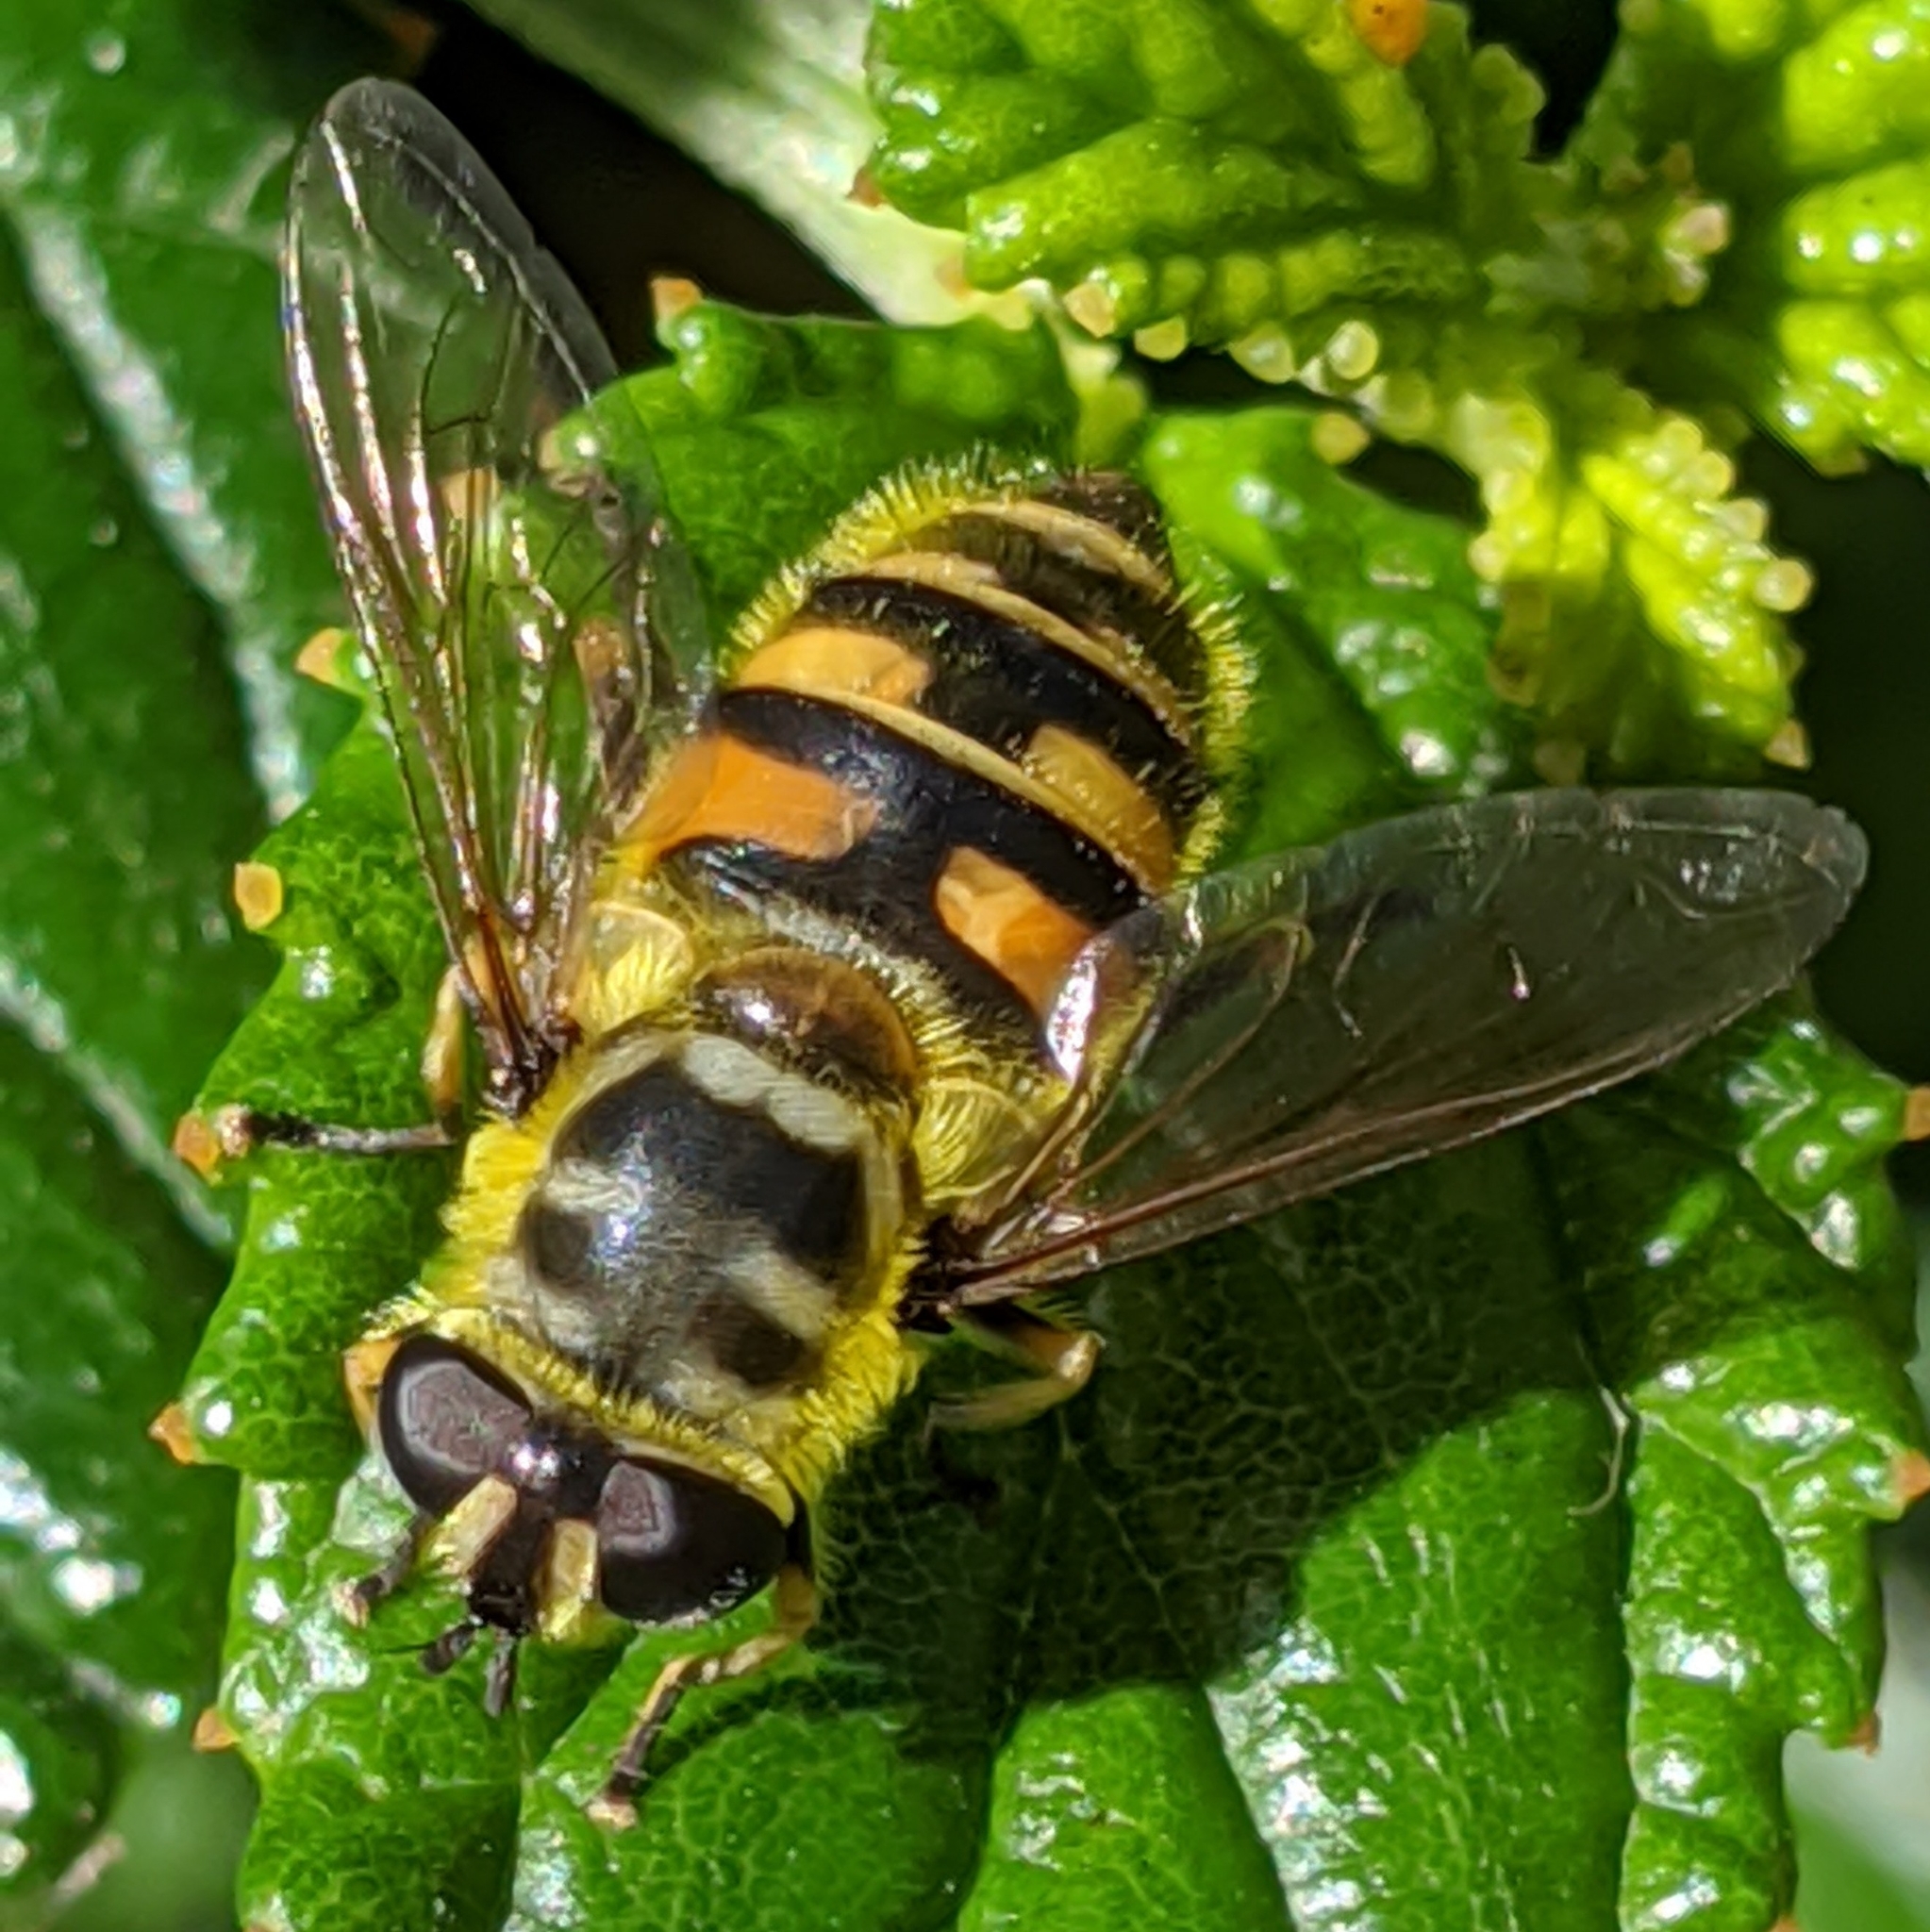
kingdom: Animalia
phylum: Arthropoda
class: Insecta
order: Diptera
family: Syrphidae
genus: Myathropa
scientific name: Myathropa florea
